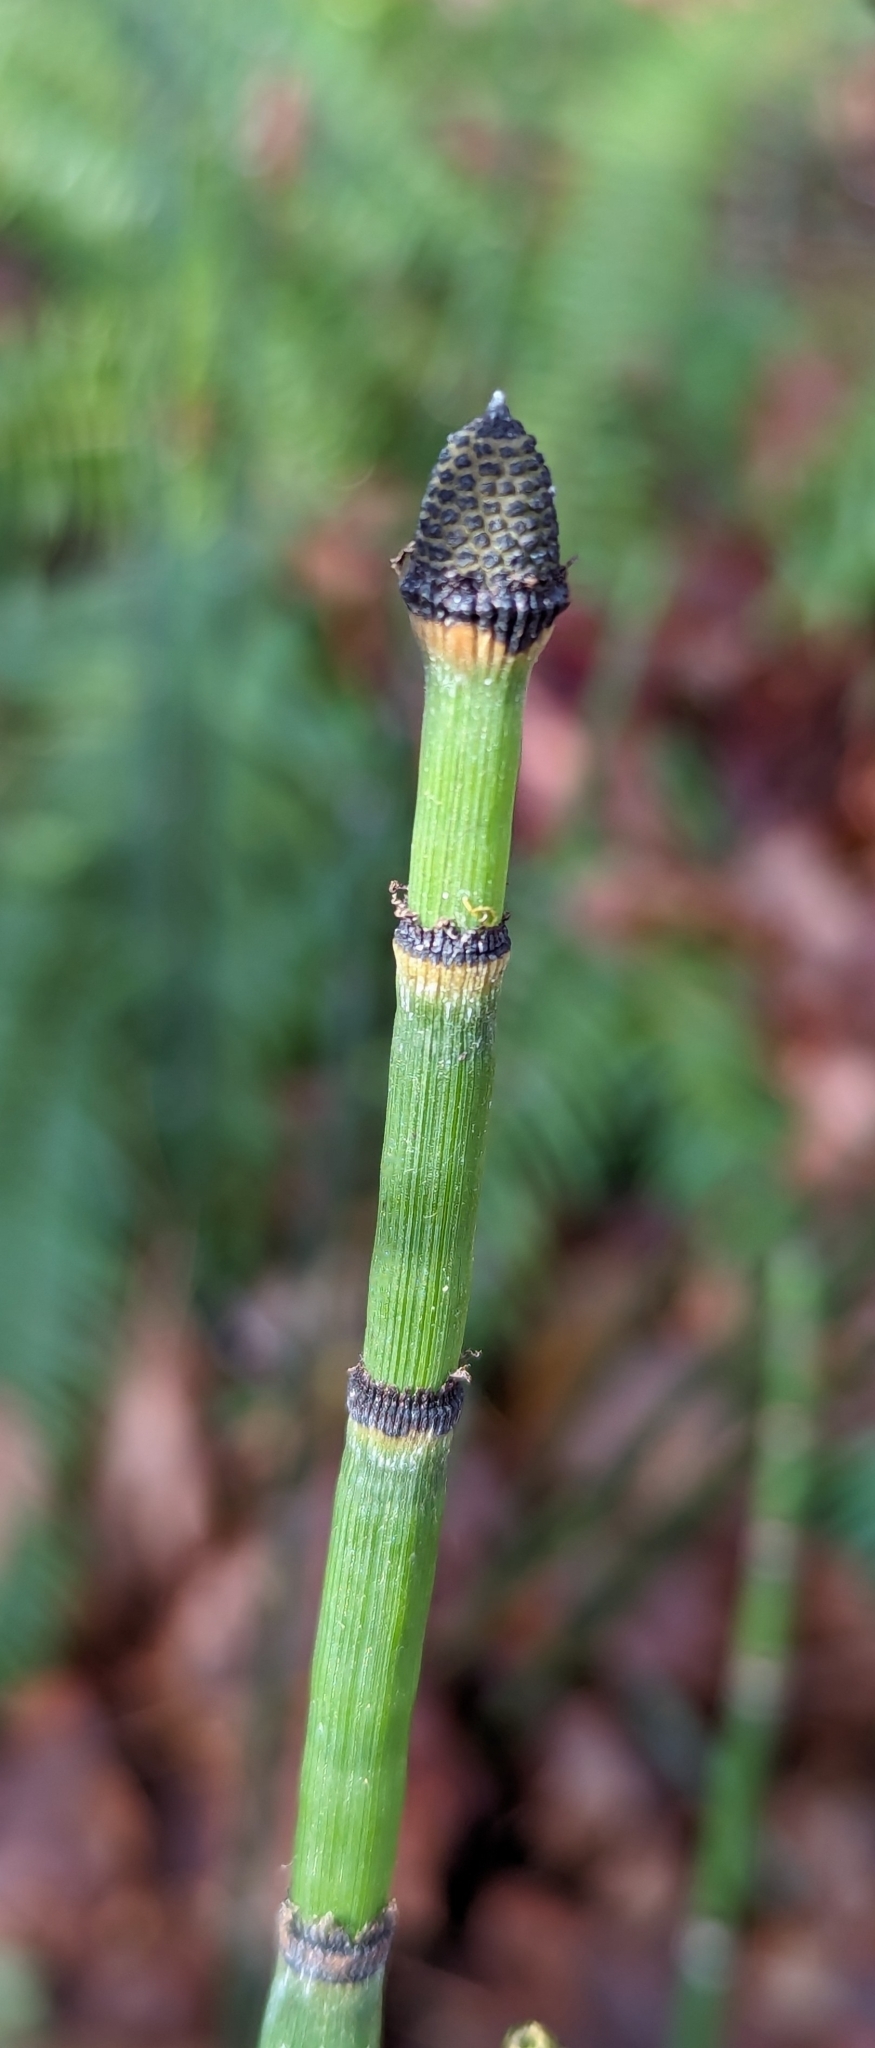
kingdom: Plantae
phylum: Tracheophyta
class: Polypodiopsida
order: Equisetales
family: Equisetaceae
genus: Equisetum
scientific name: Equisetum hyemale
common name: Rough horsetail
